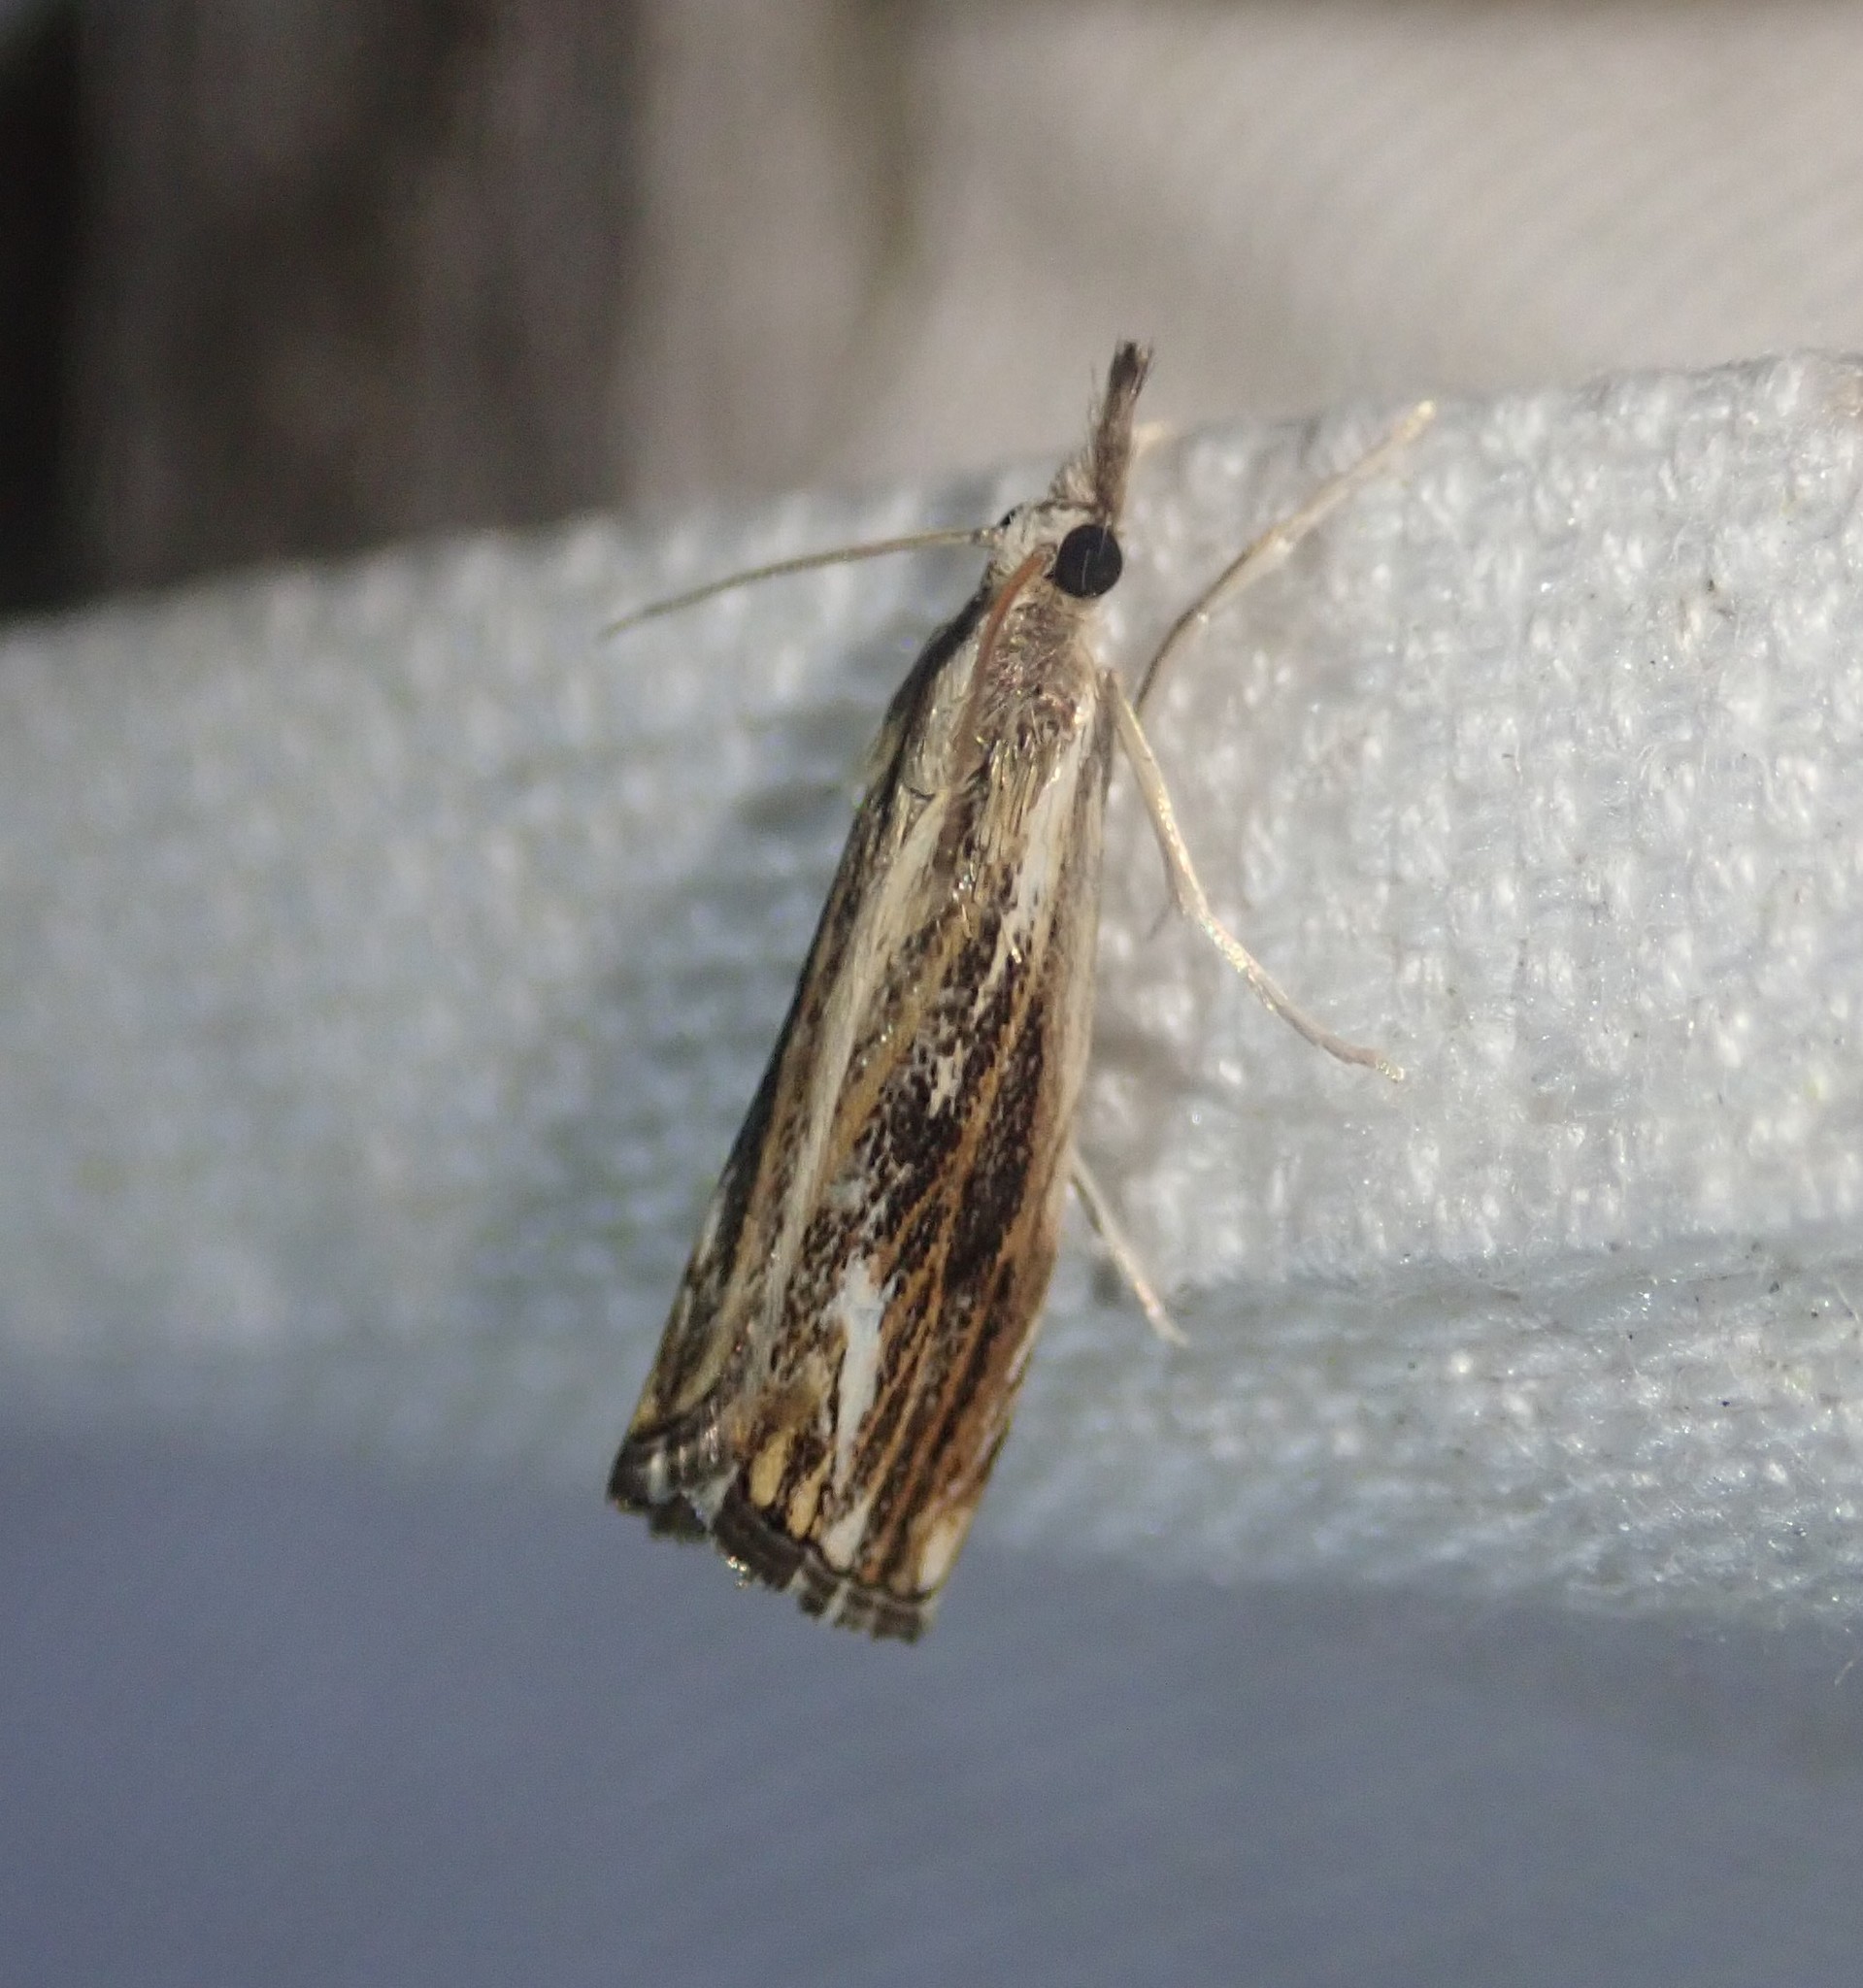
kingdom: Animalia
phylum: Arthropoda
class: Insecta
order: Lepidoptera
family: Crambidae
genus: Catoptria
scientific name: Catoptria verellus
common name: Marbled grass-veneer
